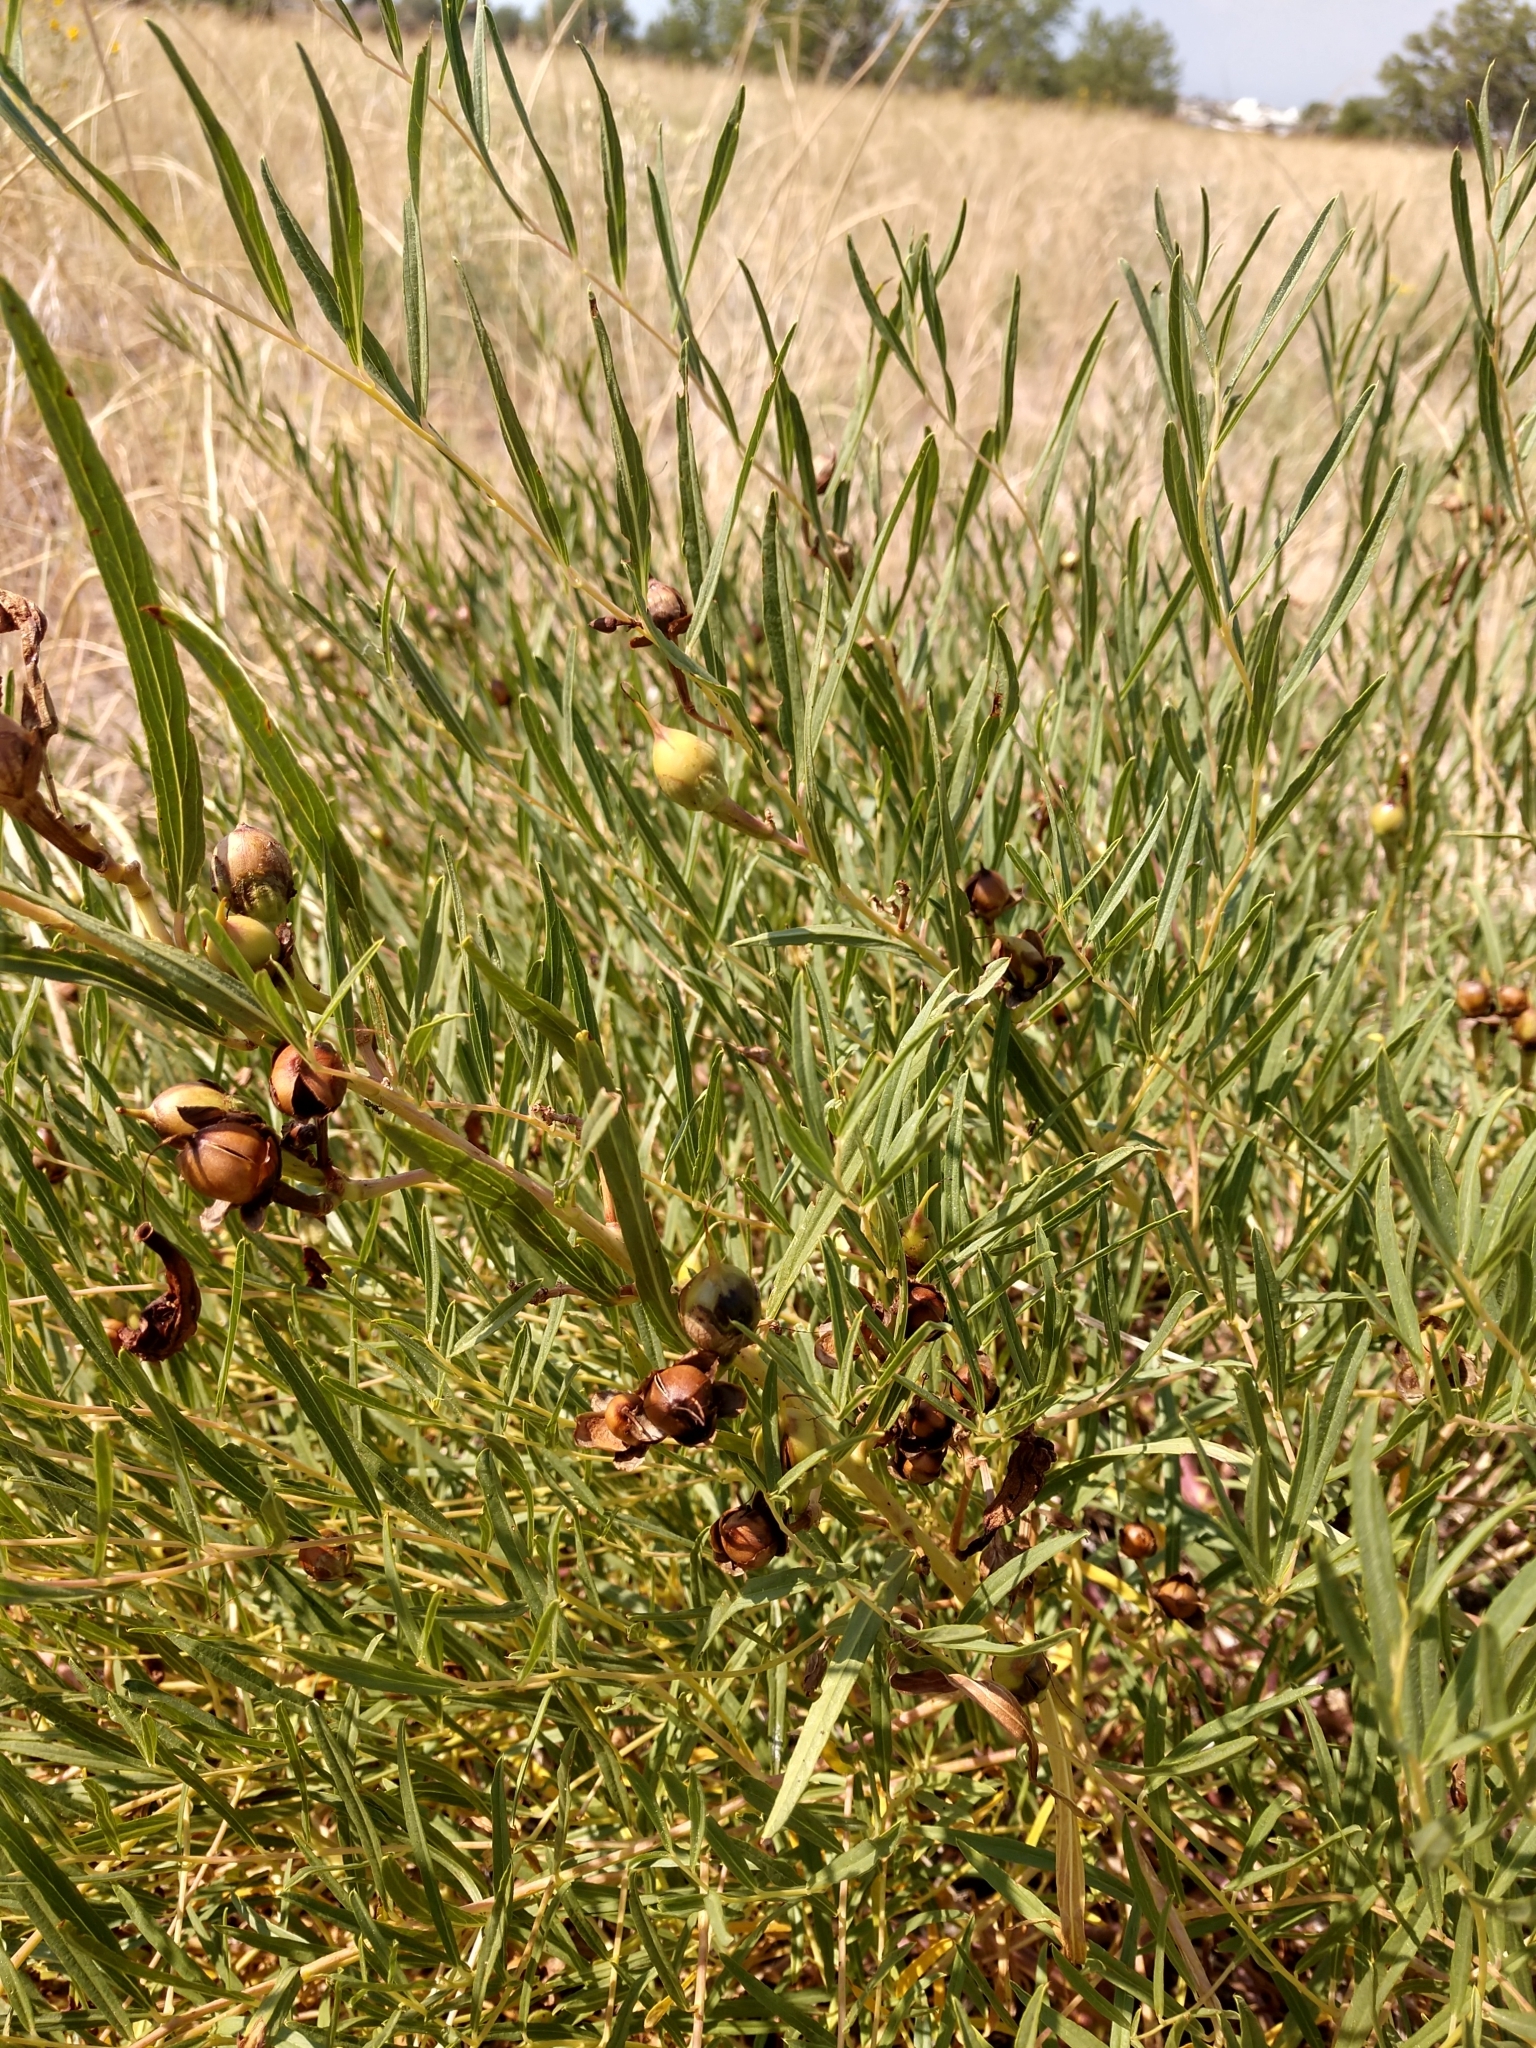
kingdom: Plantae
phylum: Tracheophyta
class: Magnoliopsida
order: Solanales
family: Convolvulaceae
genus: Ipomoea
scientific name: Ipomoea leptophylla
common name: Bush moonflower
